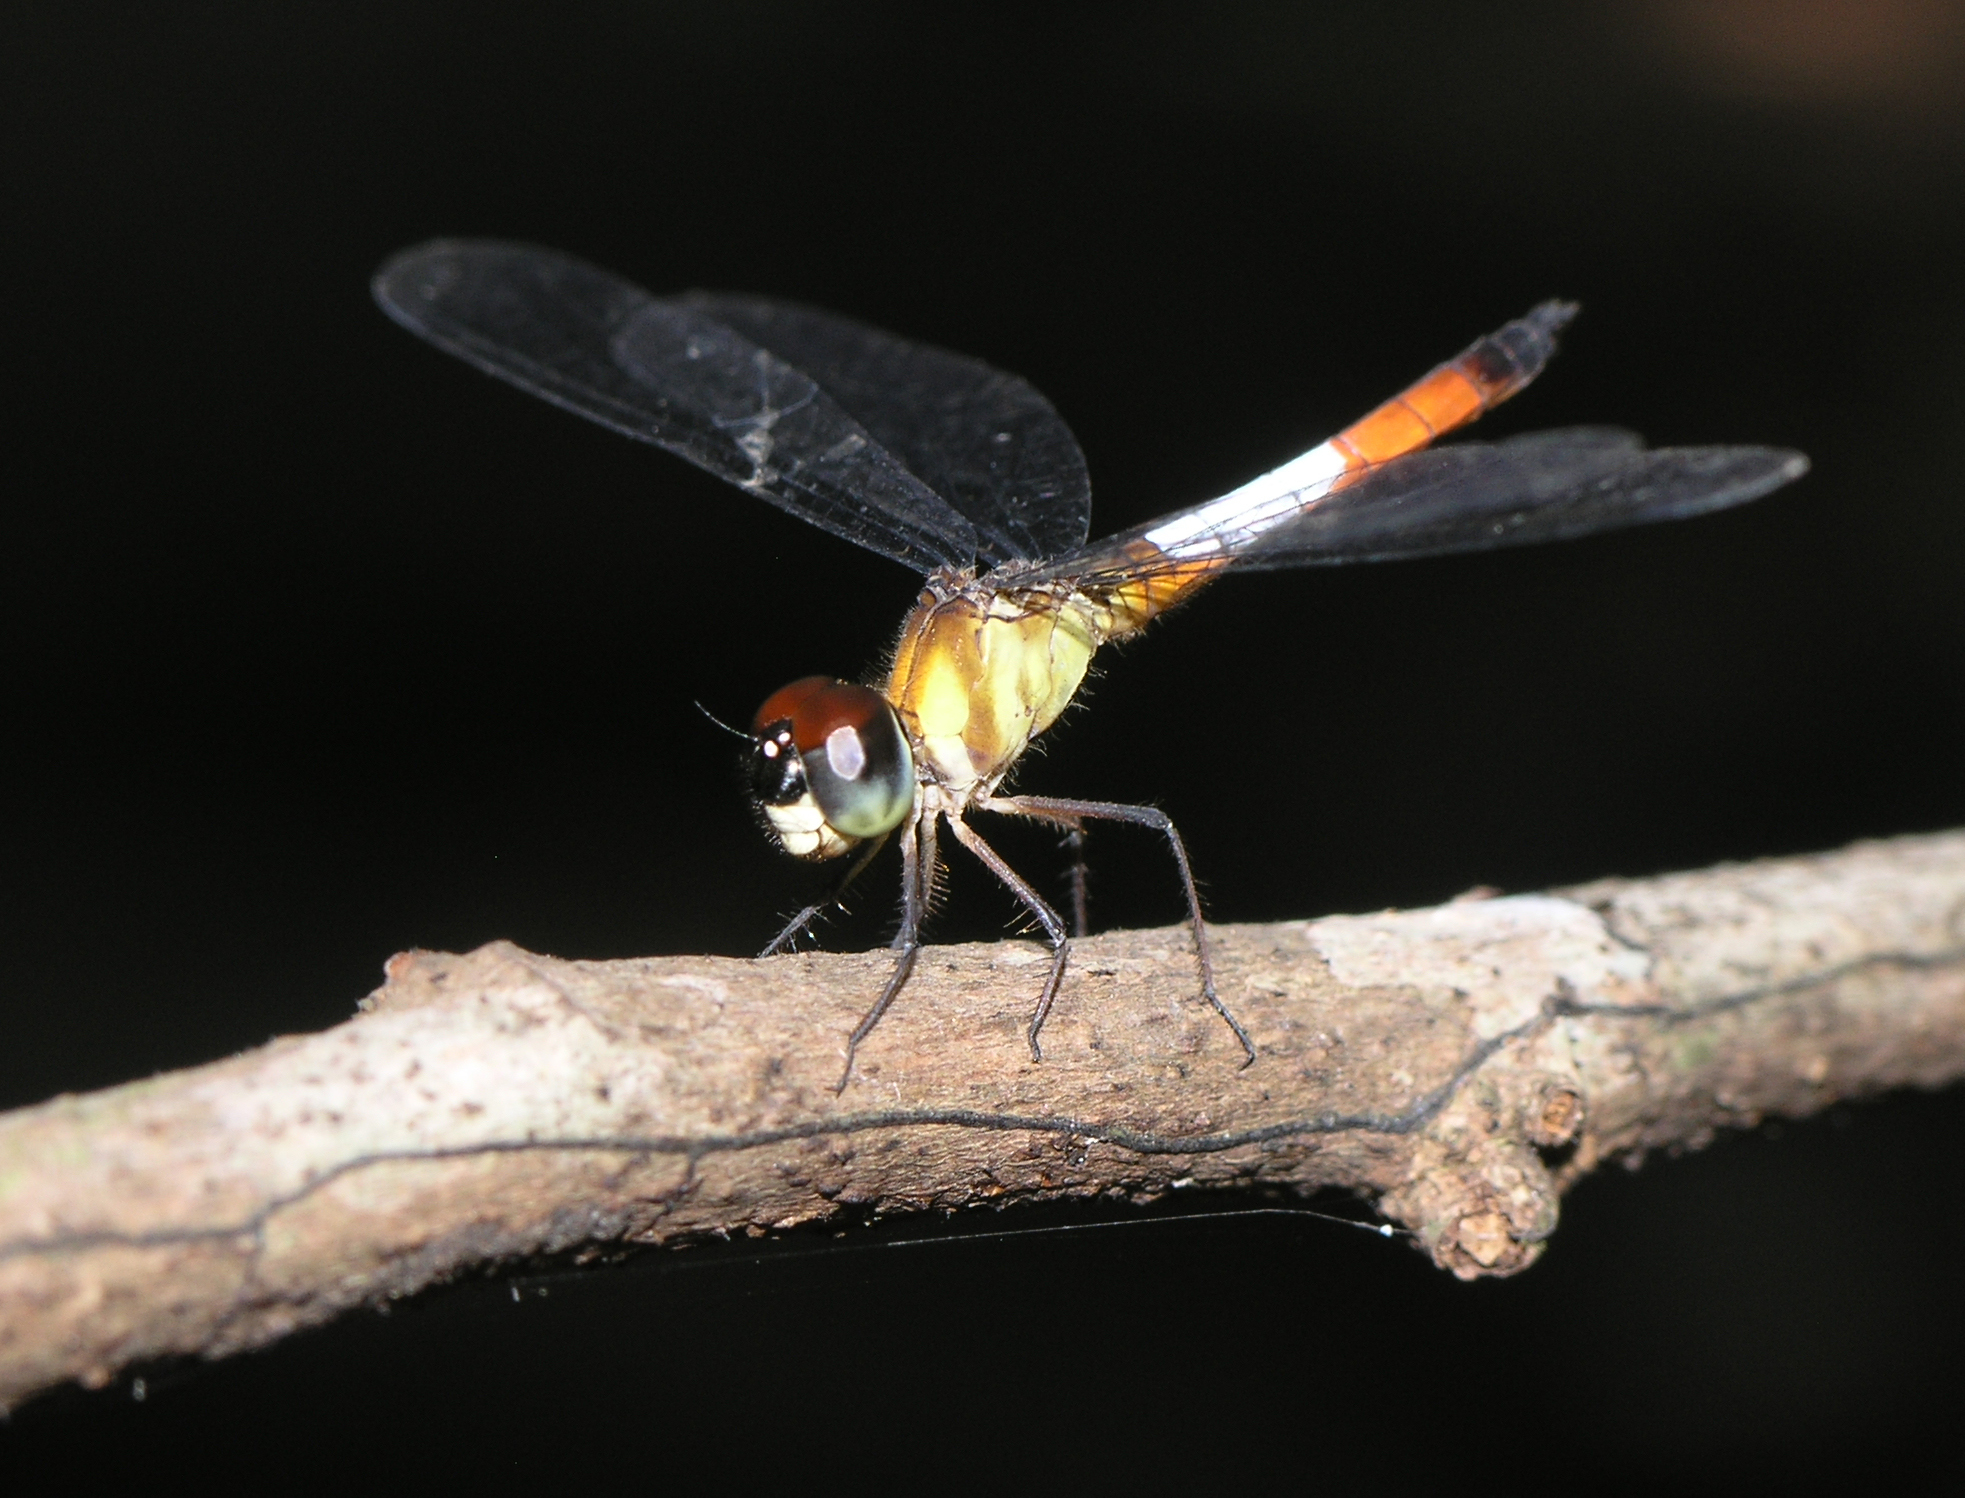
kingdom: Animalia
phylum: Arthropoda
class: Insecta
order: Odonata
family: Libellulidae
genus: Brachygonia
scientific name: Brachygonia oculata
